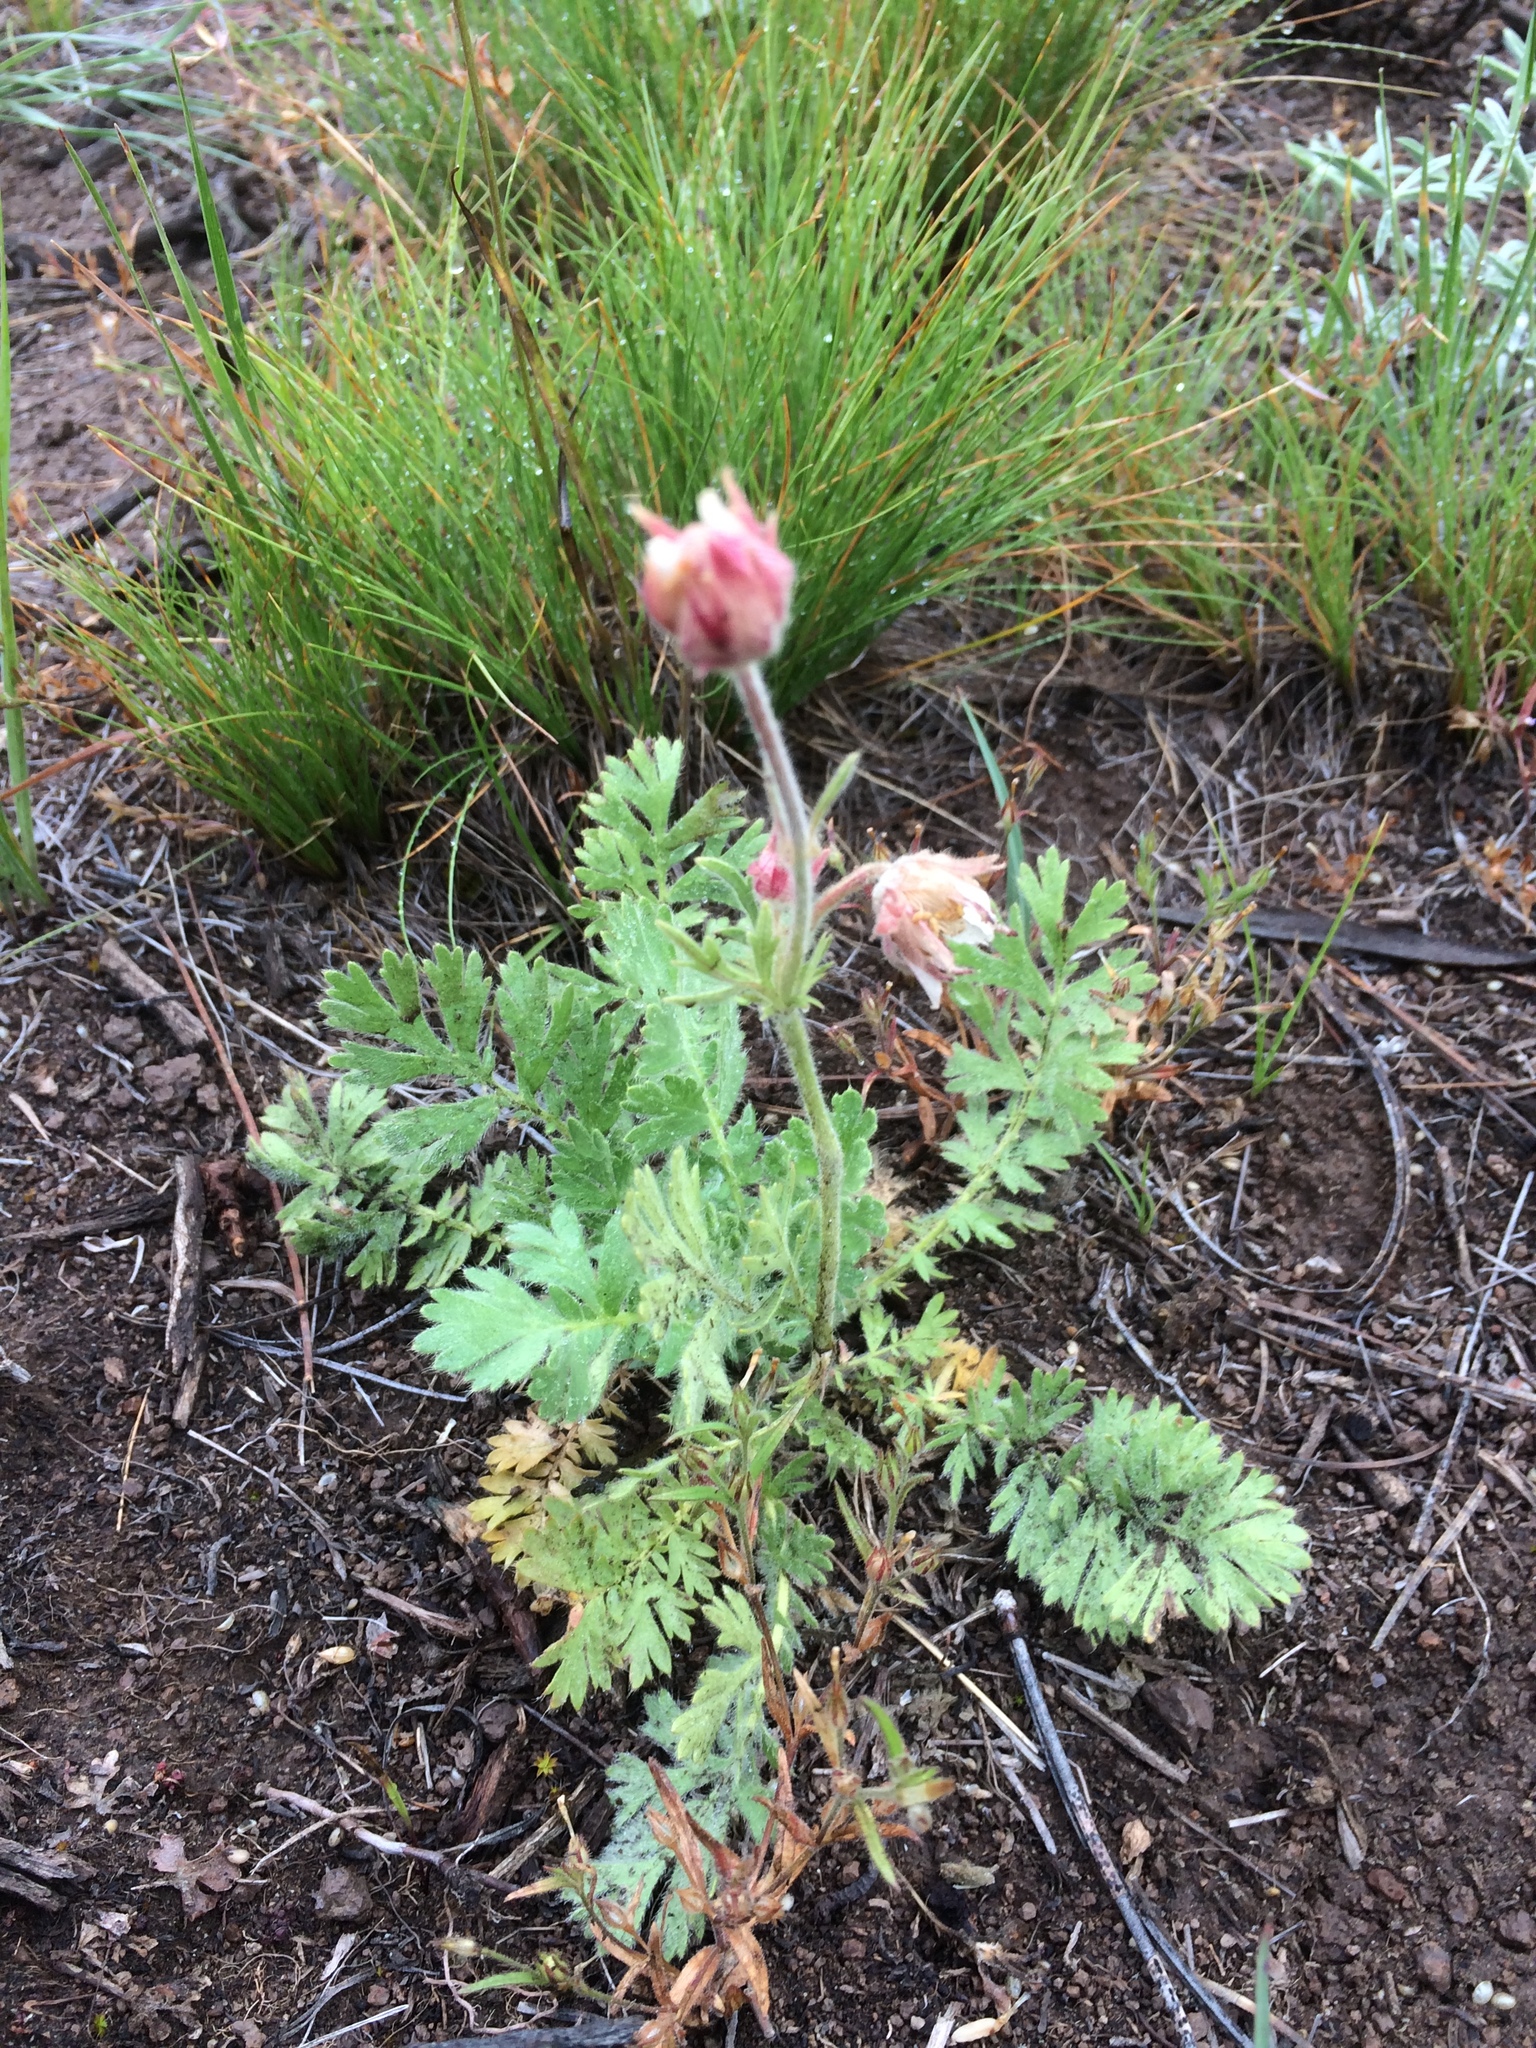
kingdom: Plantae
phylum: Tracheophyta
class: Magnoliopsida
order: Rosales
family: Rosaceae
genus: Geum
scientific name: Geum triflorum
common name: Old man's whiskers
